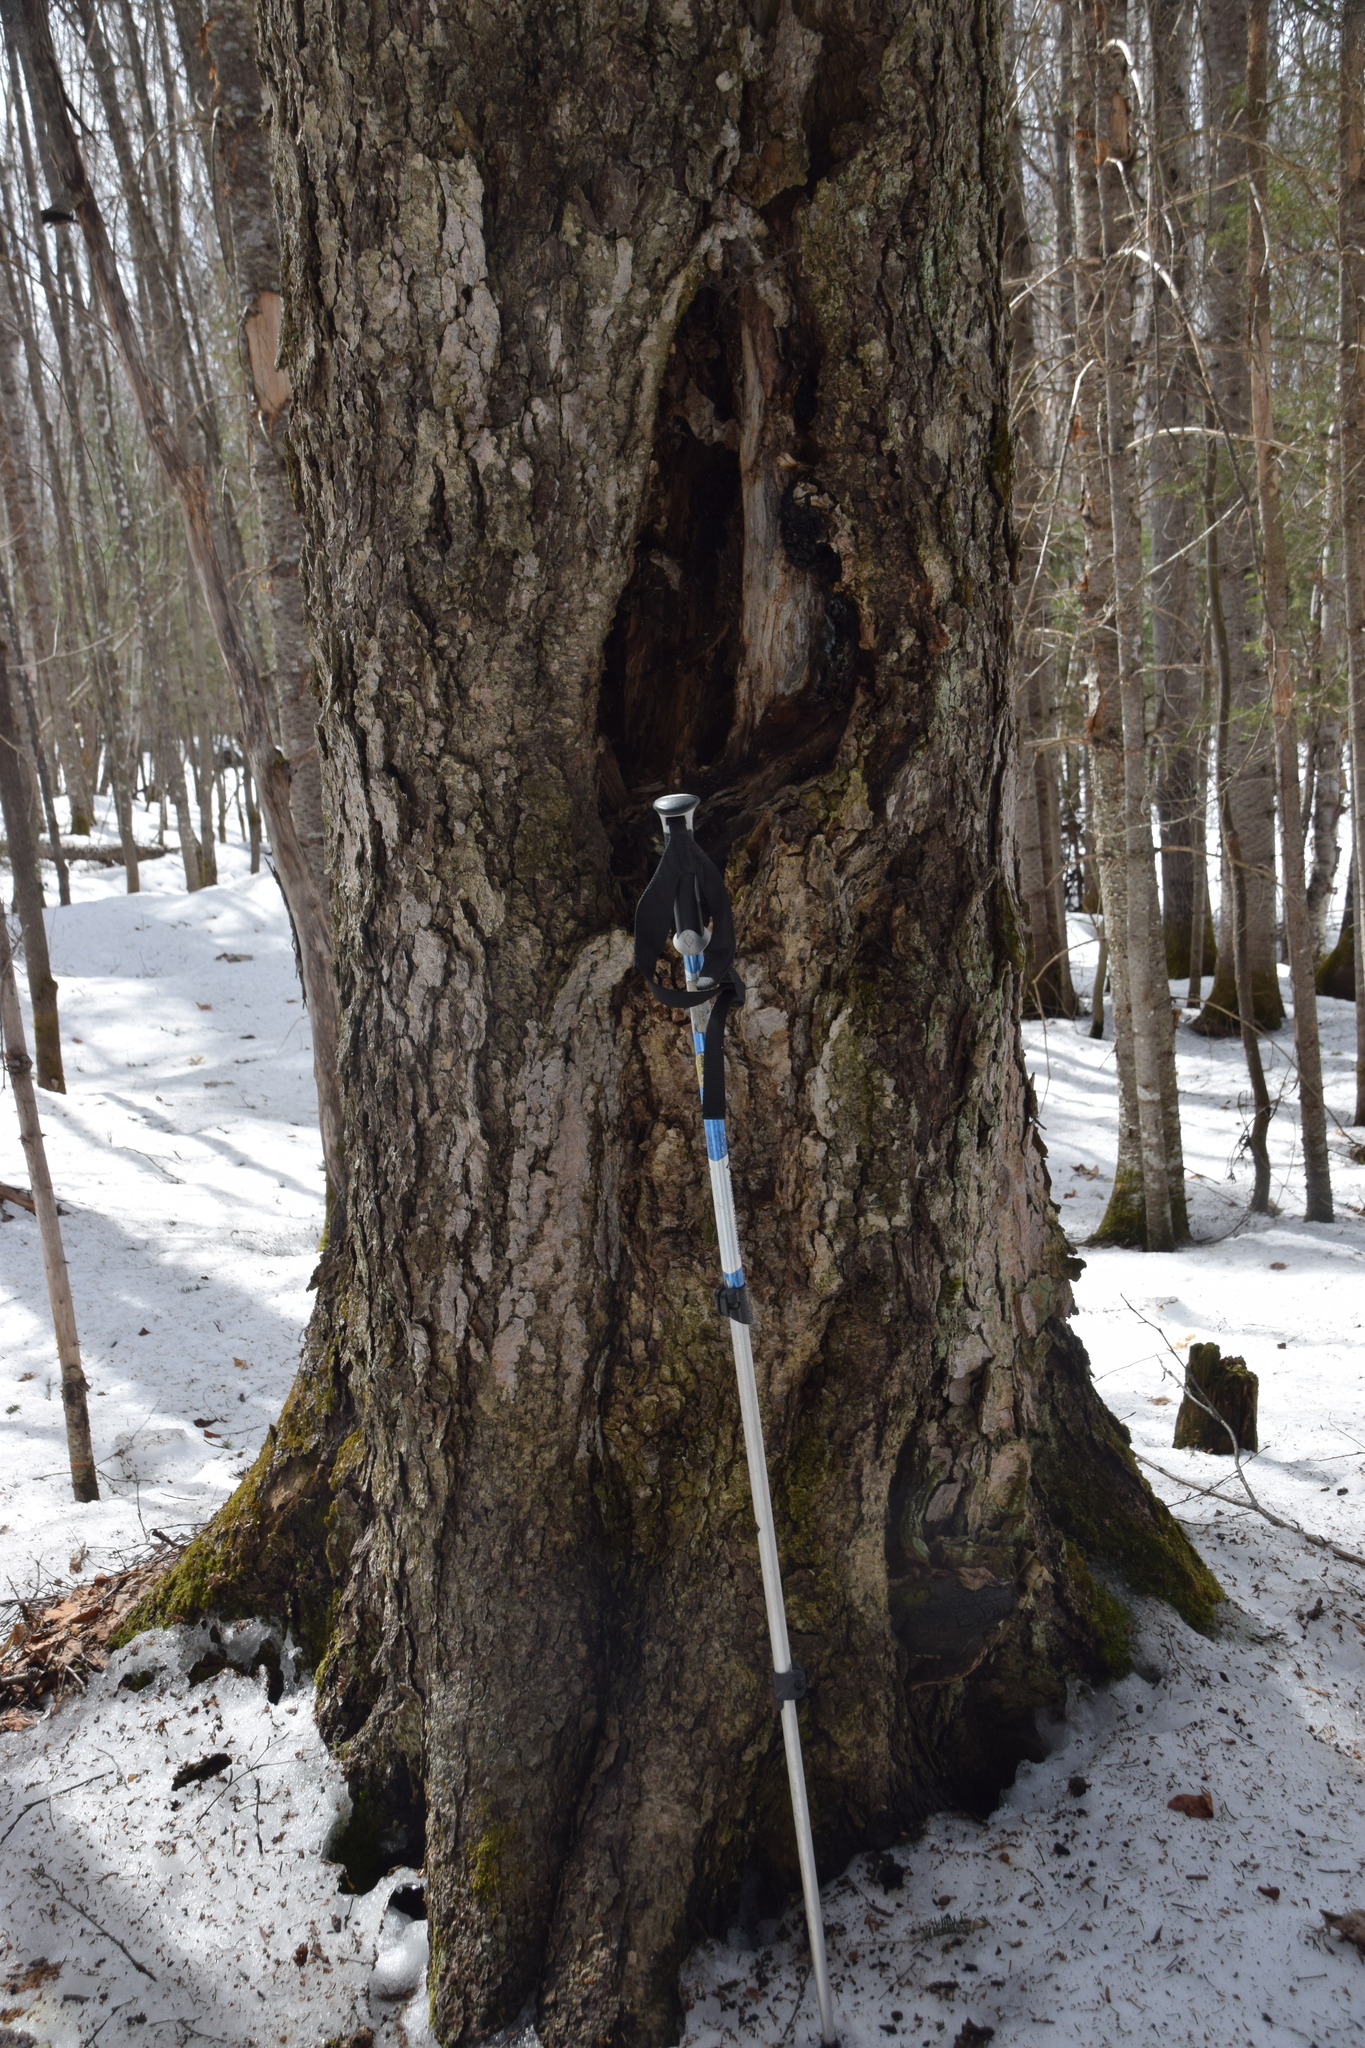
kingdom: Fungi
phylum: Basidiomycota
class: Agaricomycetes
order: Hymenochaetales
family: Hymenochaetaceae
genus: Inonotus
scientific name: Inonotus obliquus
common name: Chaga
